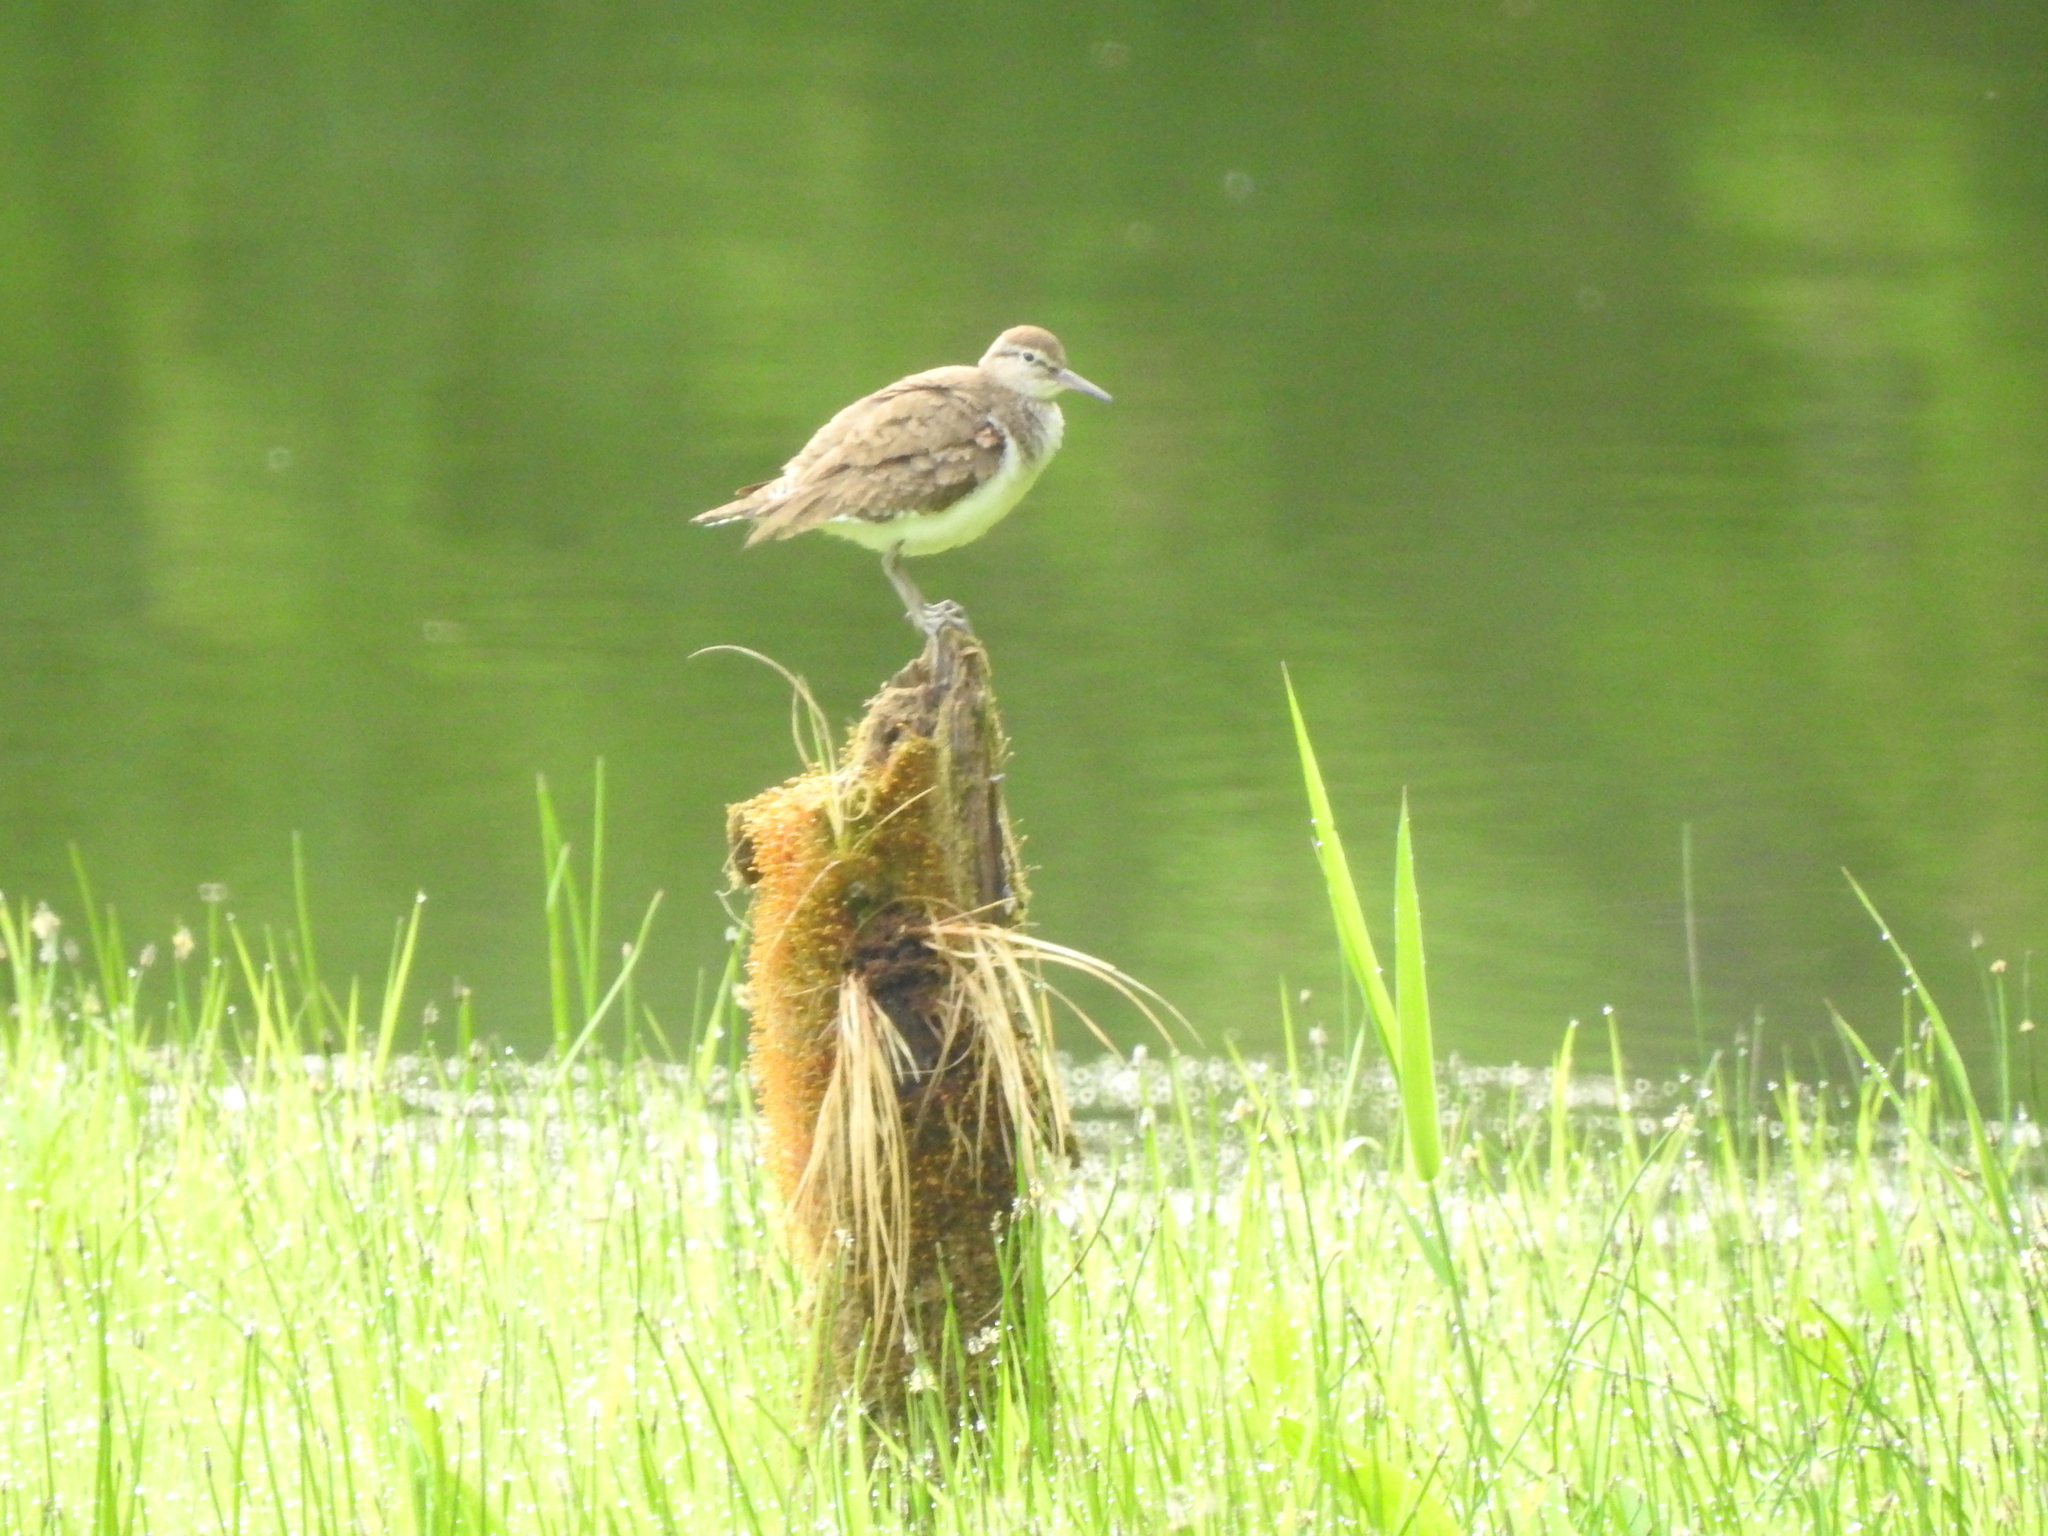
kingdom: Animalia
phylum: Chordata
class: Aves
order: Charadriiformes
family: Scolopacidae
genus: Actitis
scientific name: Actitis hypoleucos
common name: Common sandpiper
